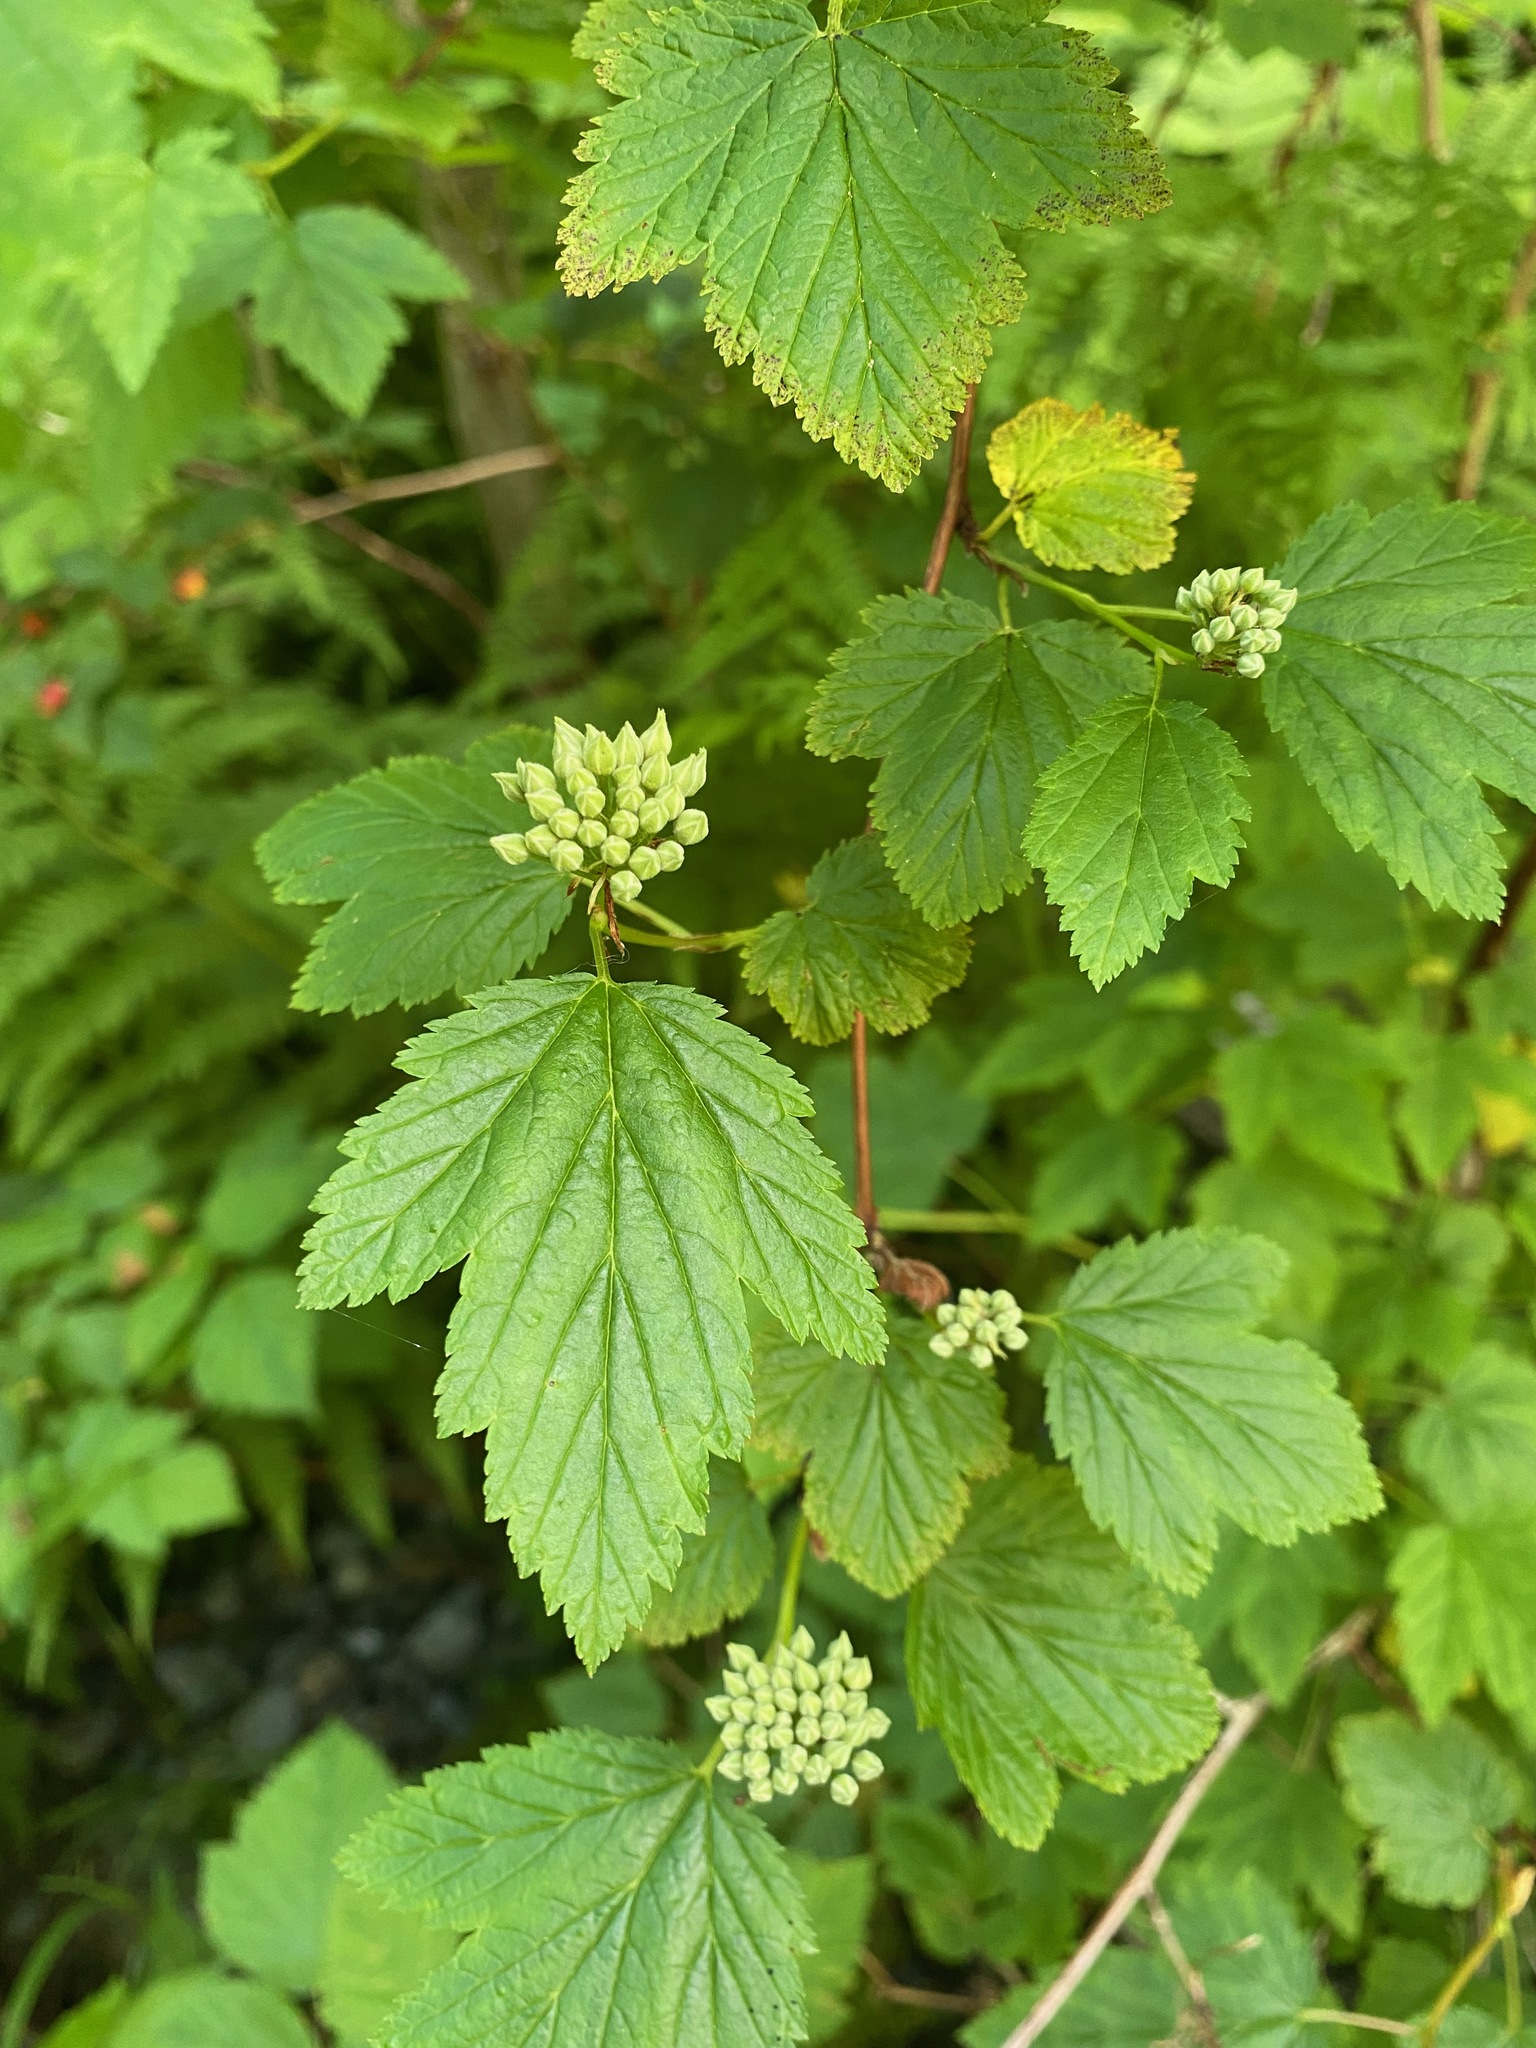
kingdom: Plantae
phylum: Tracheophyta
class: Magnoliopsida
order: Rosales
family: Rosaceae
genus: Physocarpus
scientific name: Physocarpus capitatus
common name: Pacific ninebark
